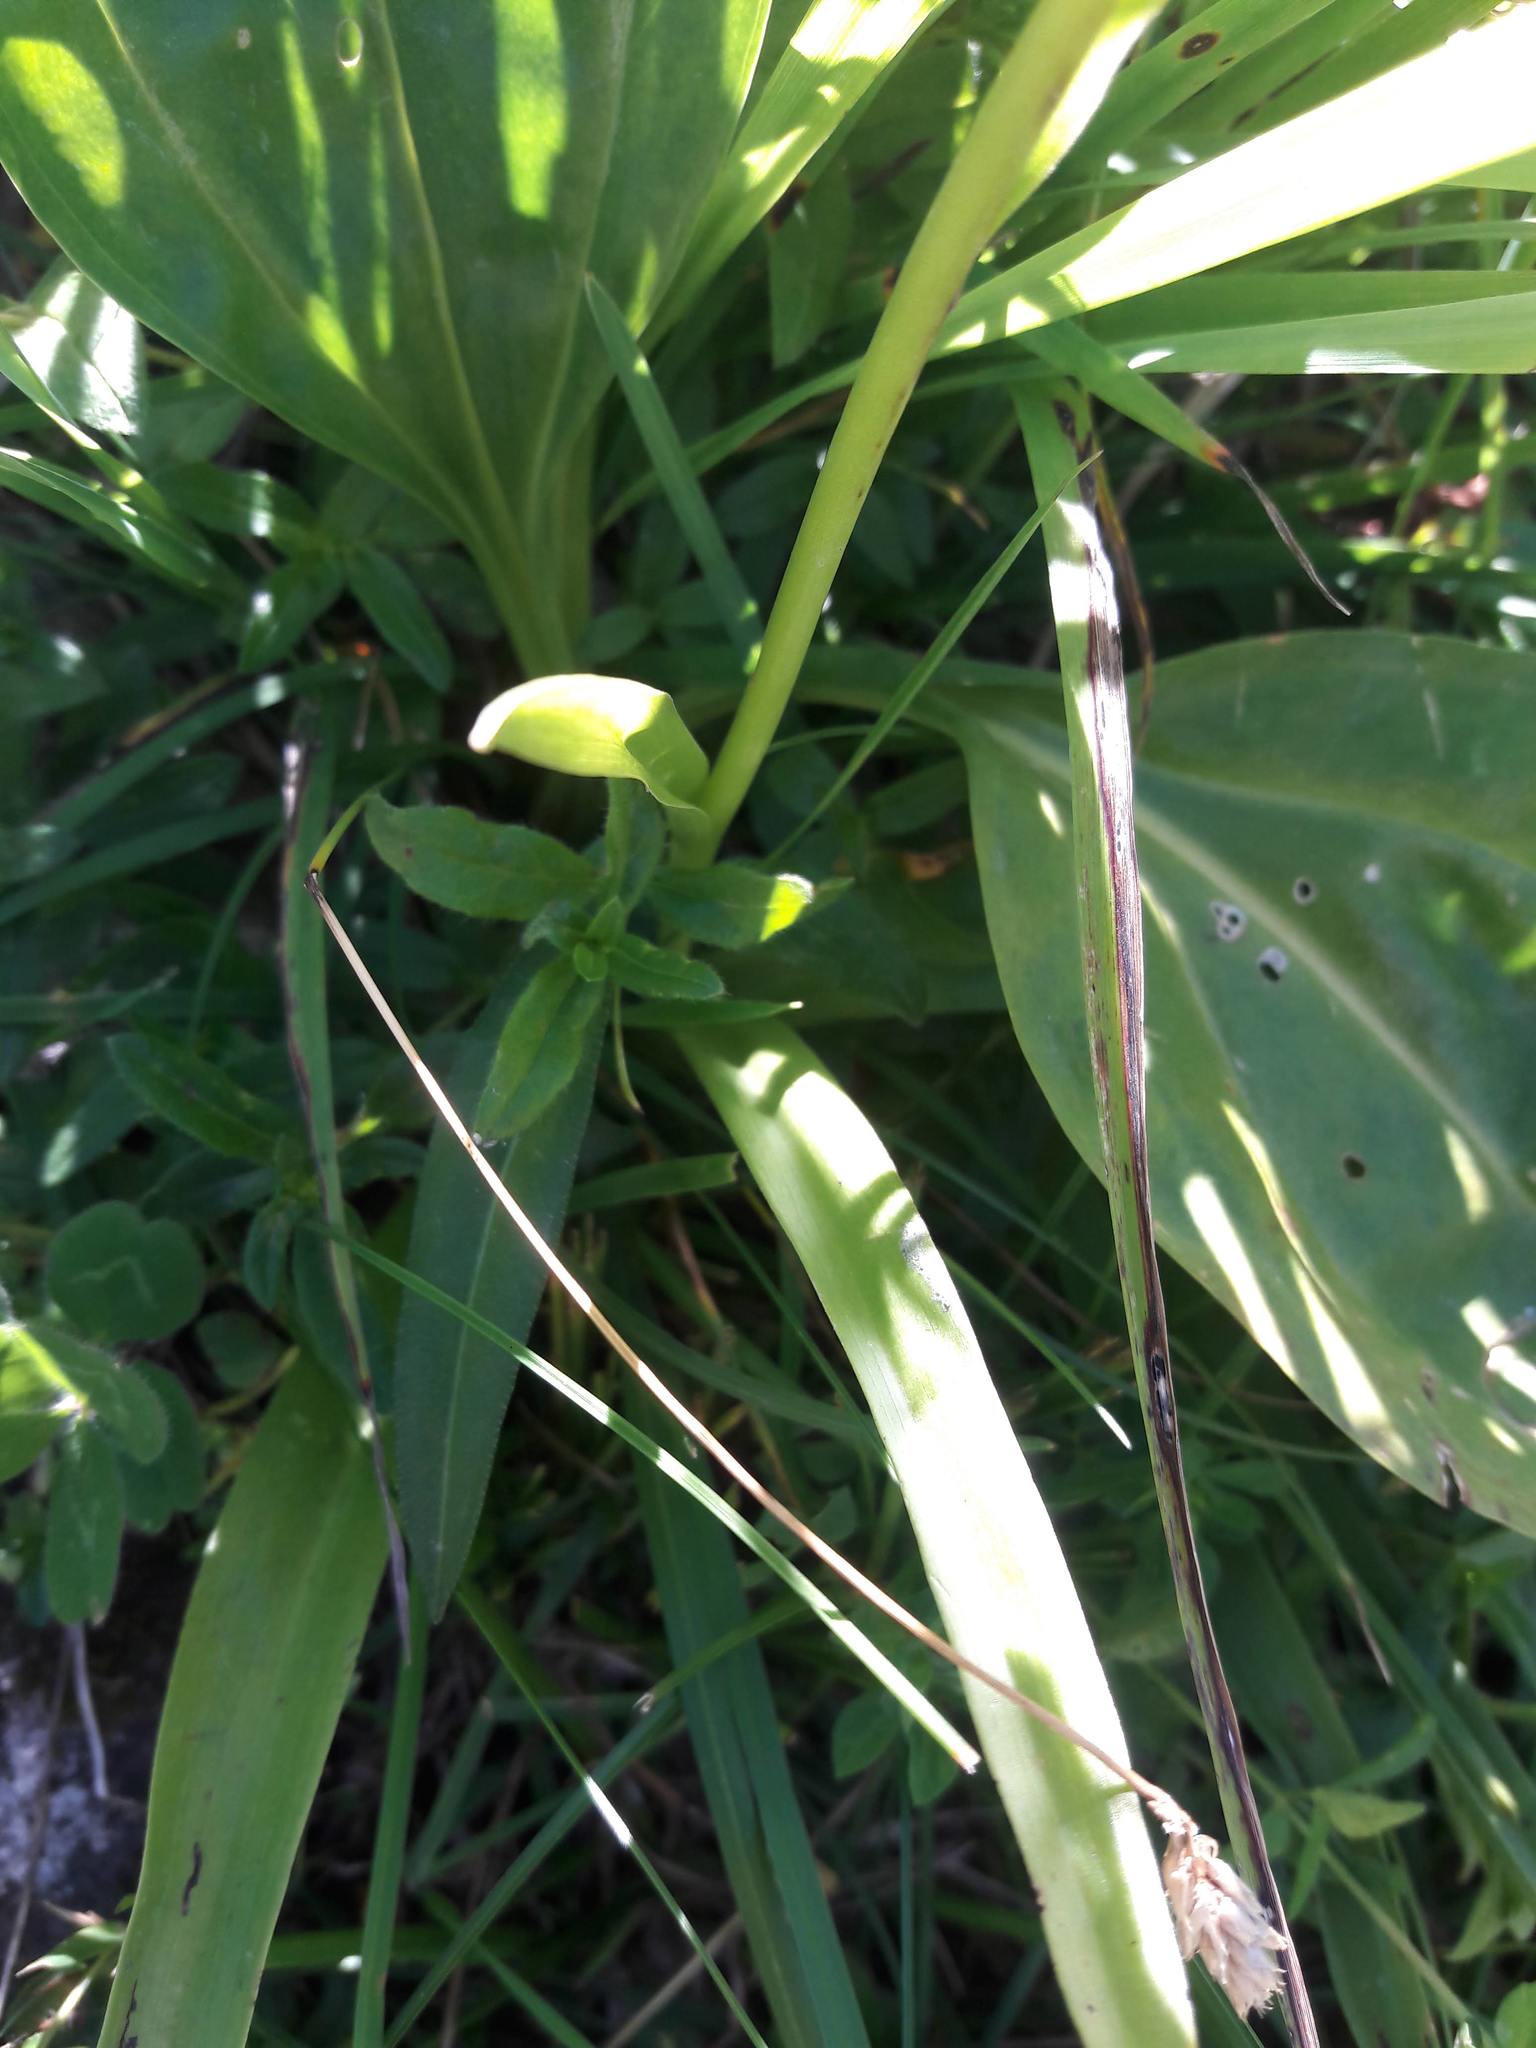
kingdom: Plantae
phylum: Tracheophyta
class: Liliopsida
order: Asparagales
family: Orchidaceae
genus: Gymnadenia
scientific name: Gymnadenia conopsea
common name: Fragrant orchid
